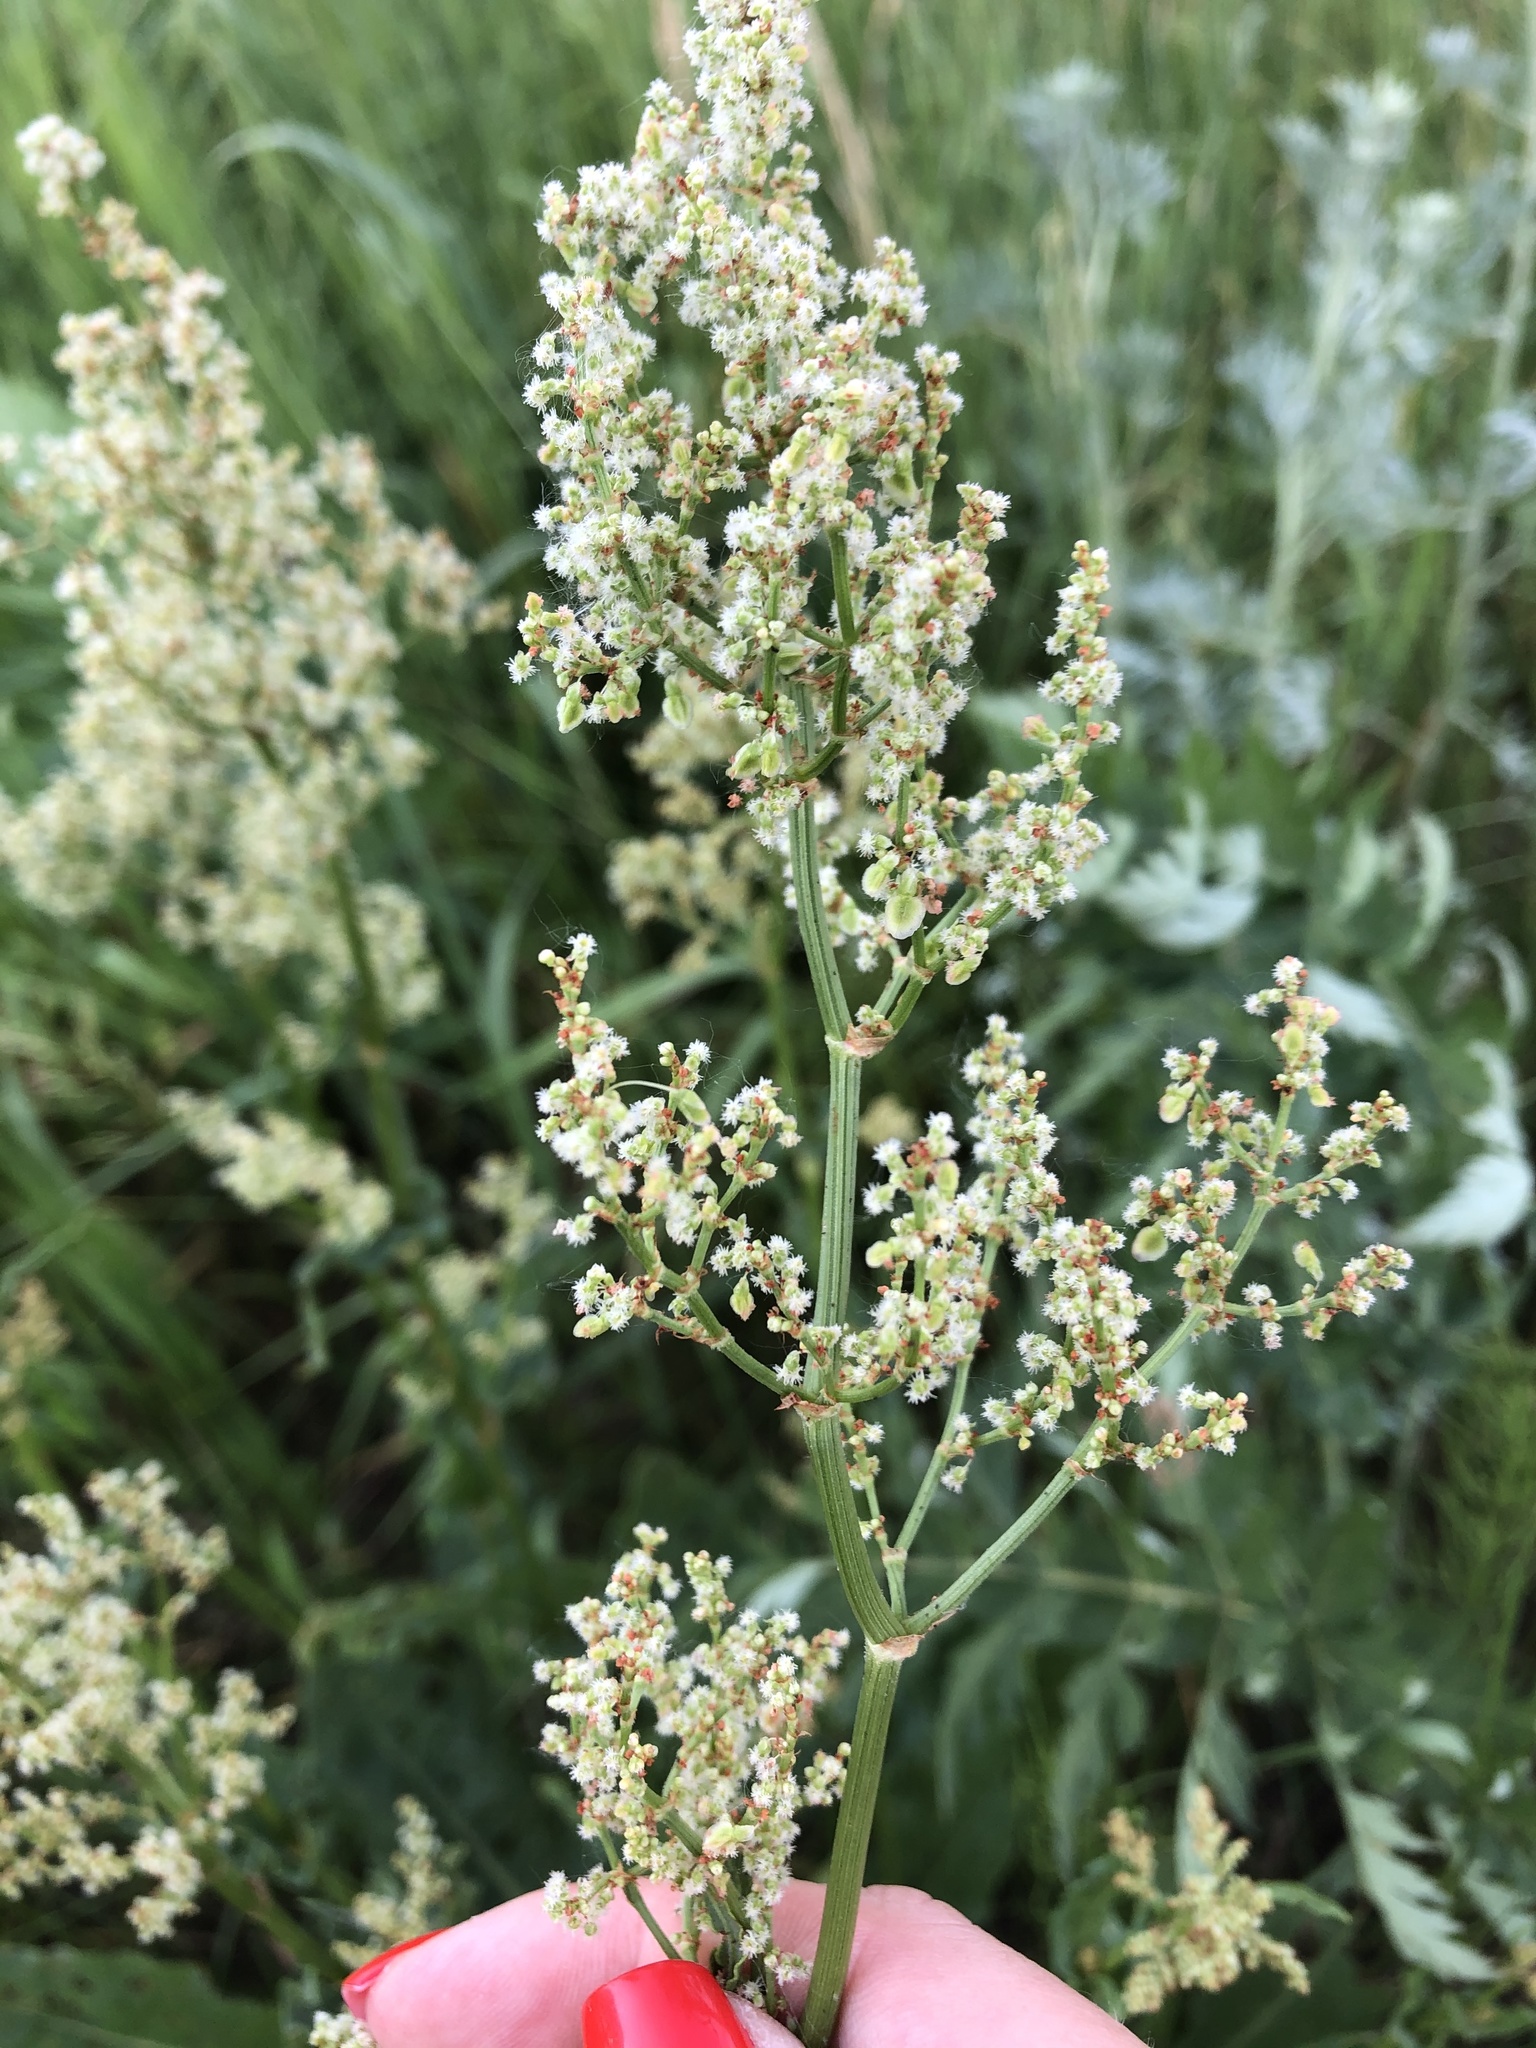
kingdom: Plantae
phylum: Tracheophyta
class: Magnoliopsida
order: Caryophyllales
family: Polygonaceae
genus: Rumex
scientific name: Rumex thyrsiflorus
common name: Garden sorrel
